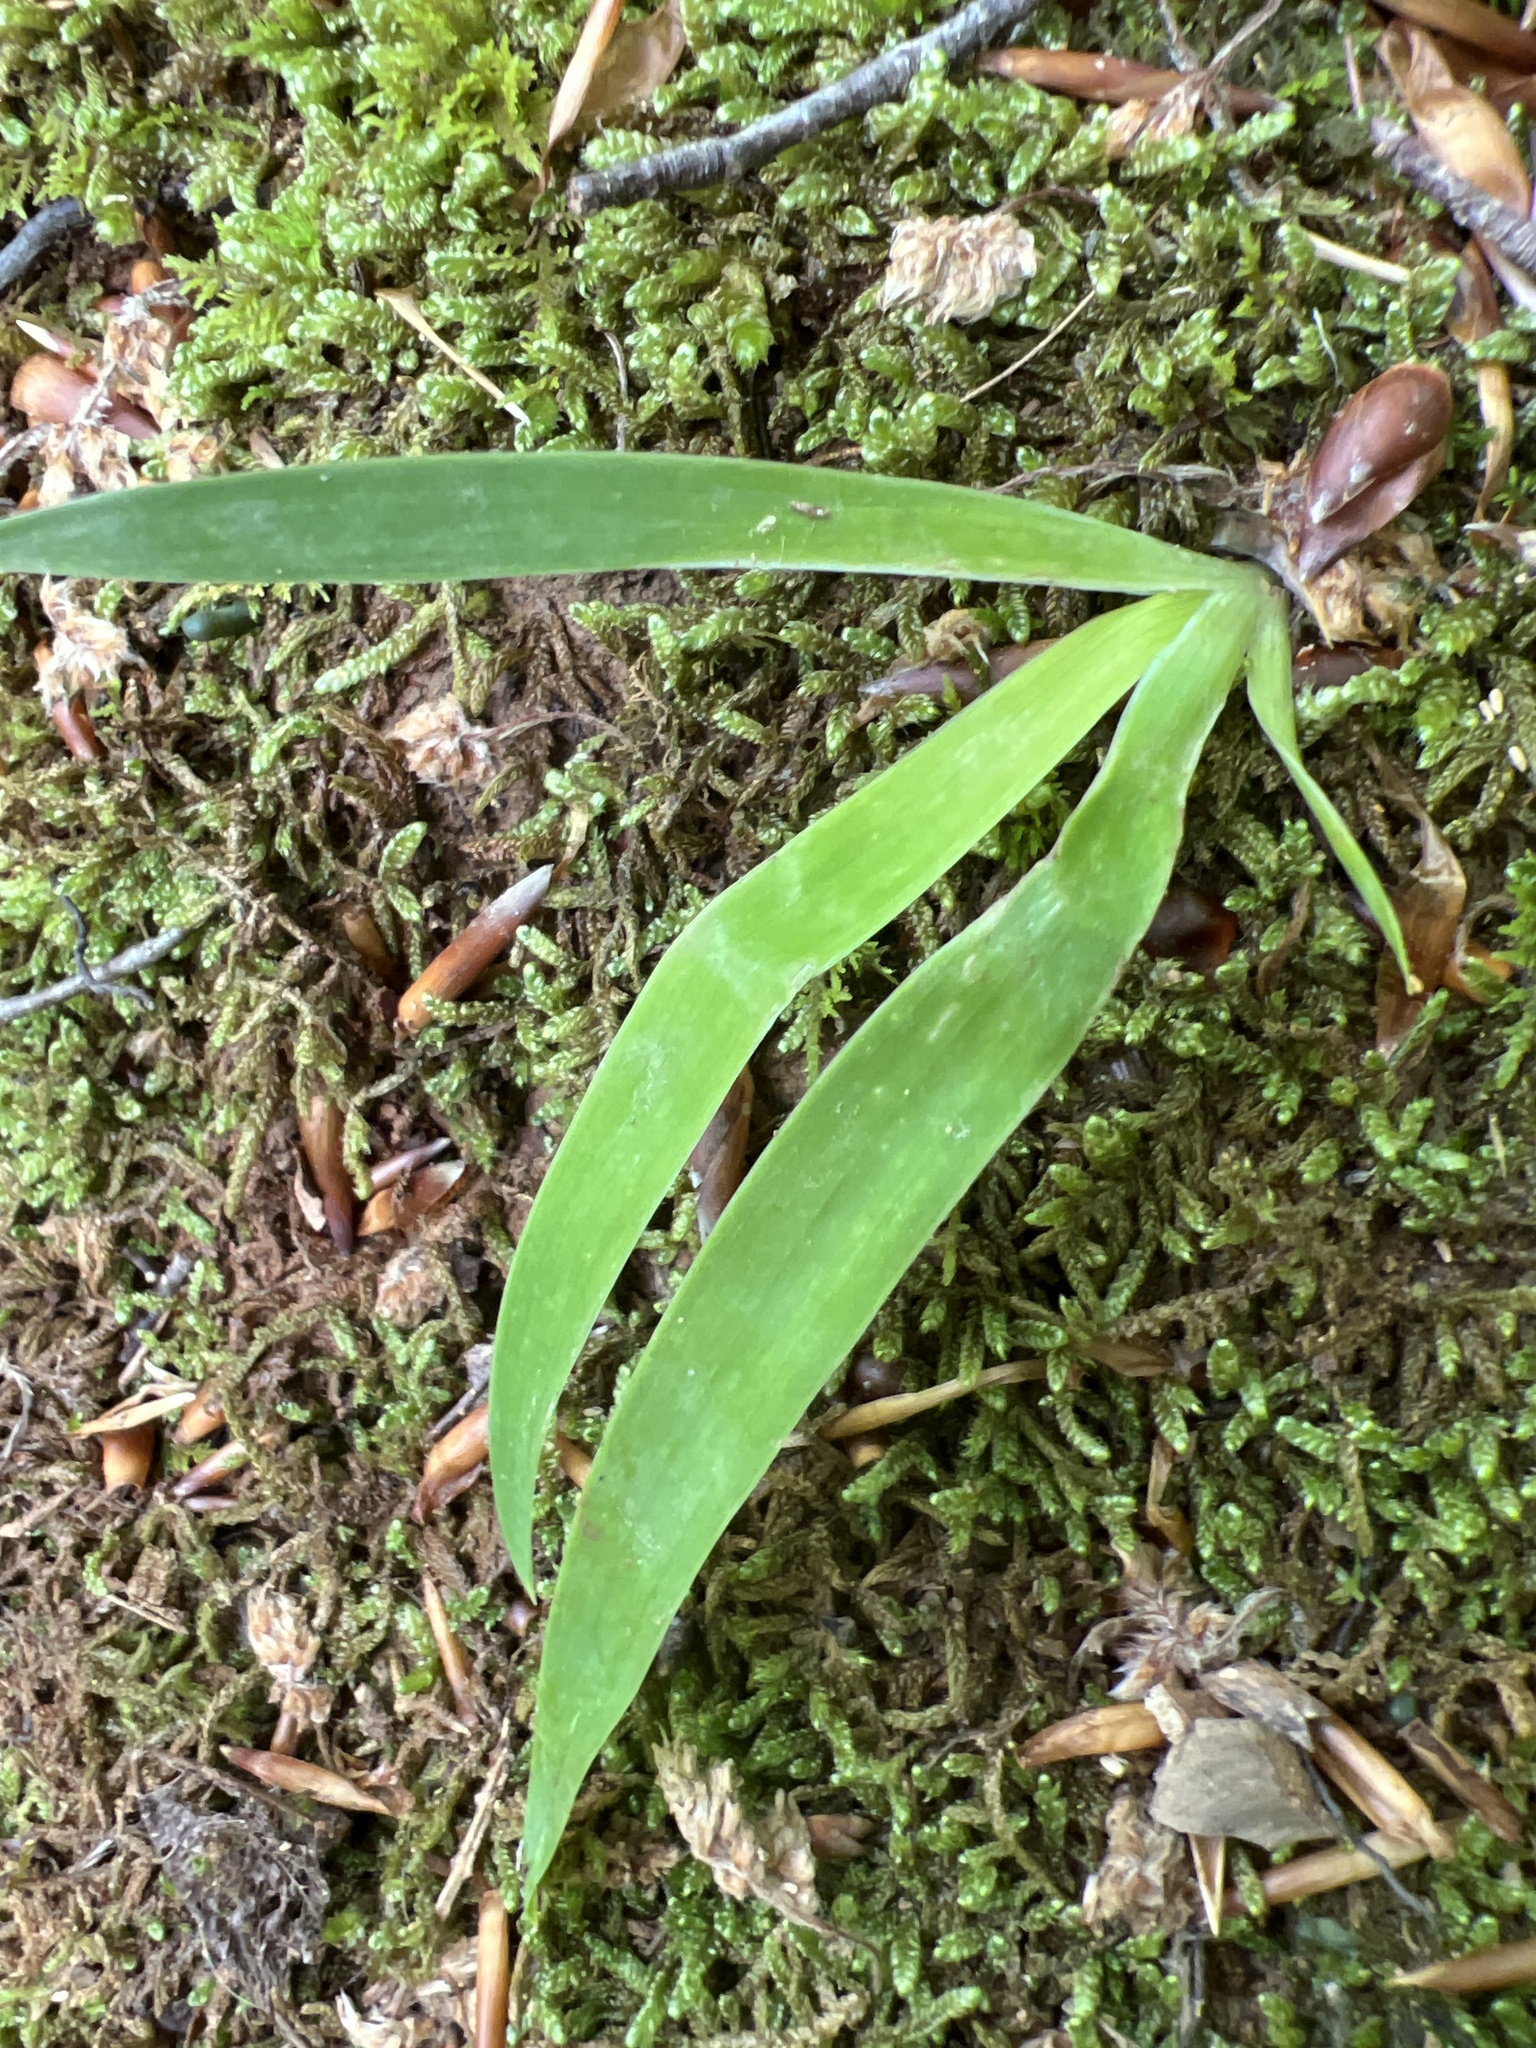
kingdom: Plantae
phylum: Tracheophyta
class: Liliopsida
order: Asparagales
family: Iridaceae
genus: Iris
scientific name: Iris cristata
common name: Crested iris
